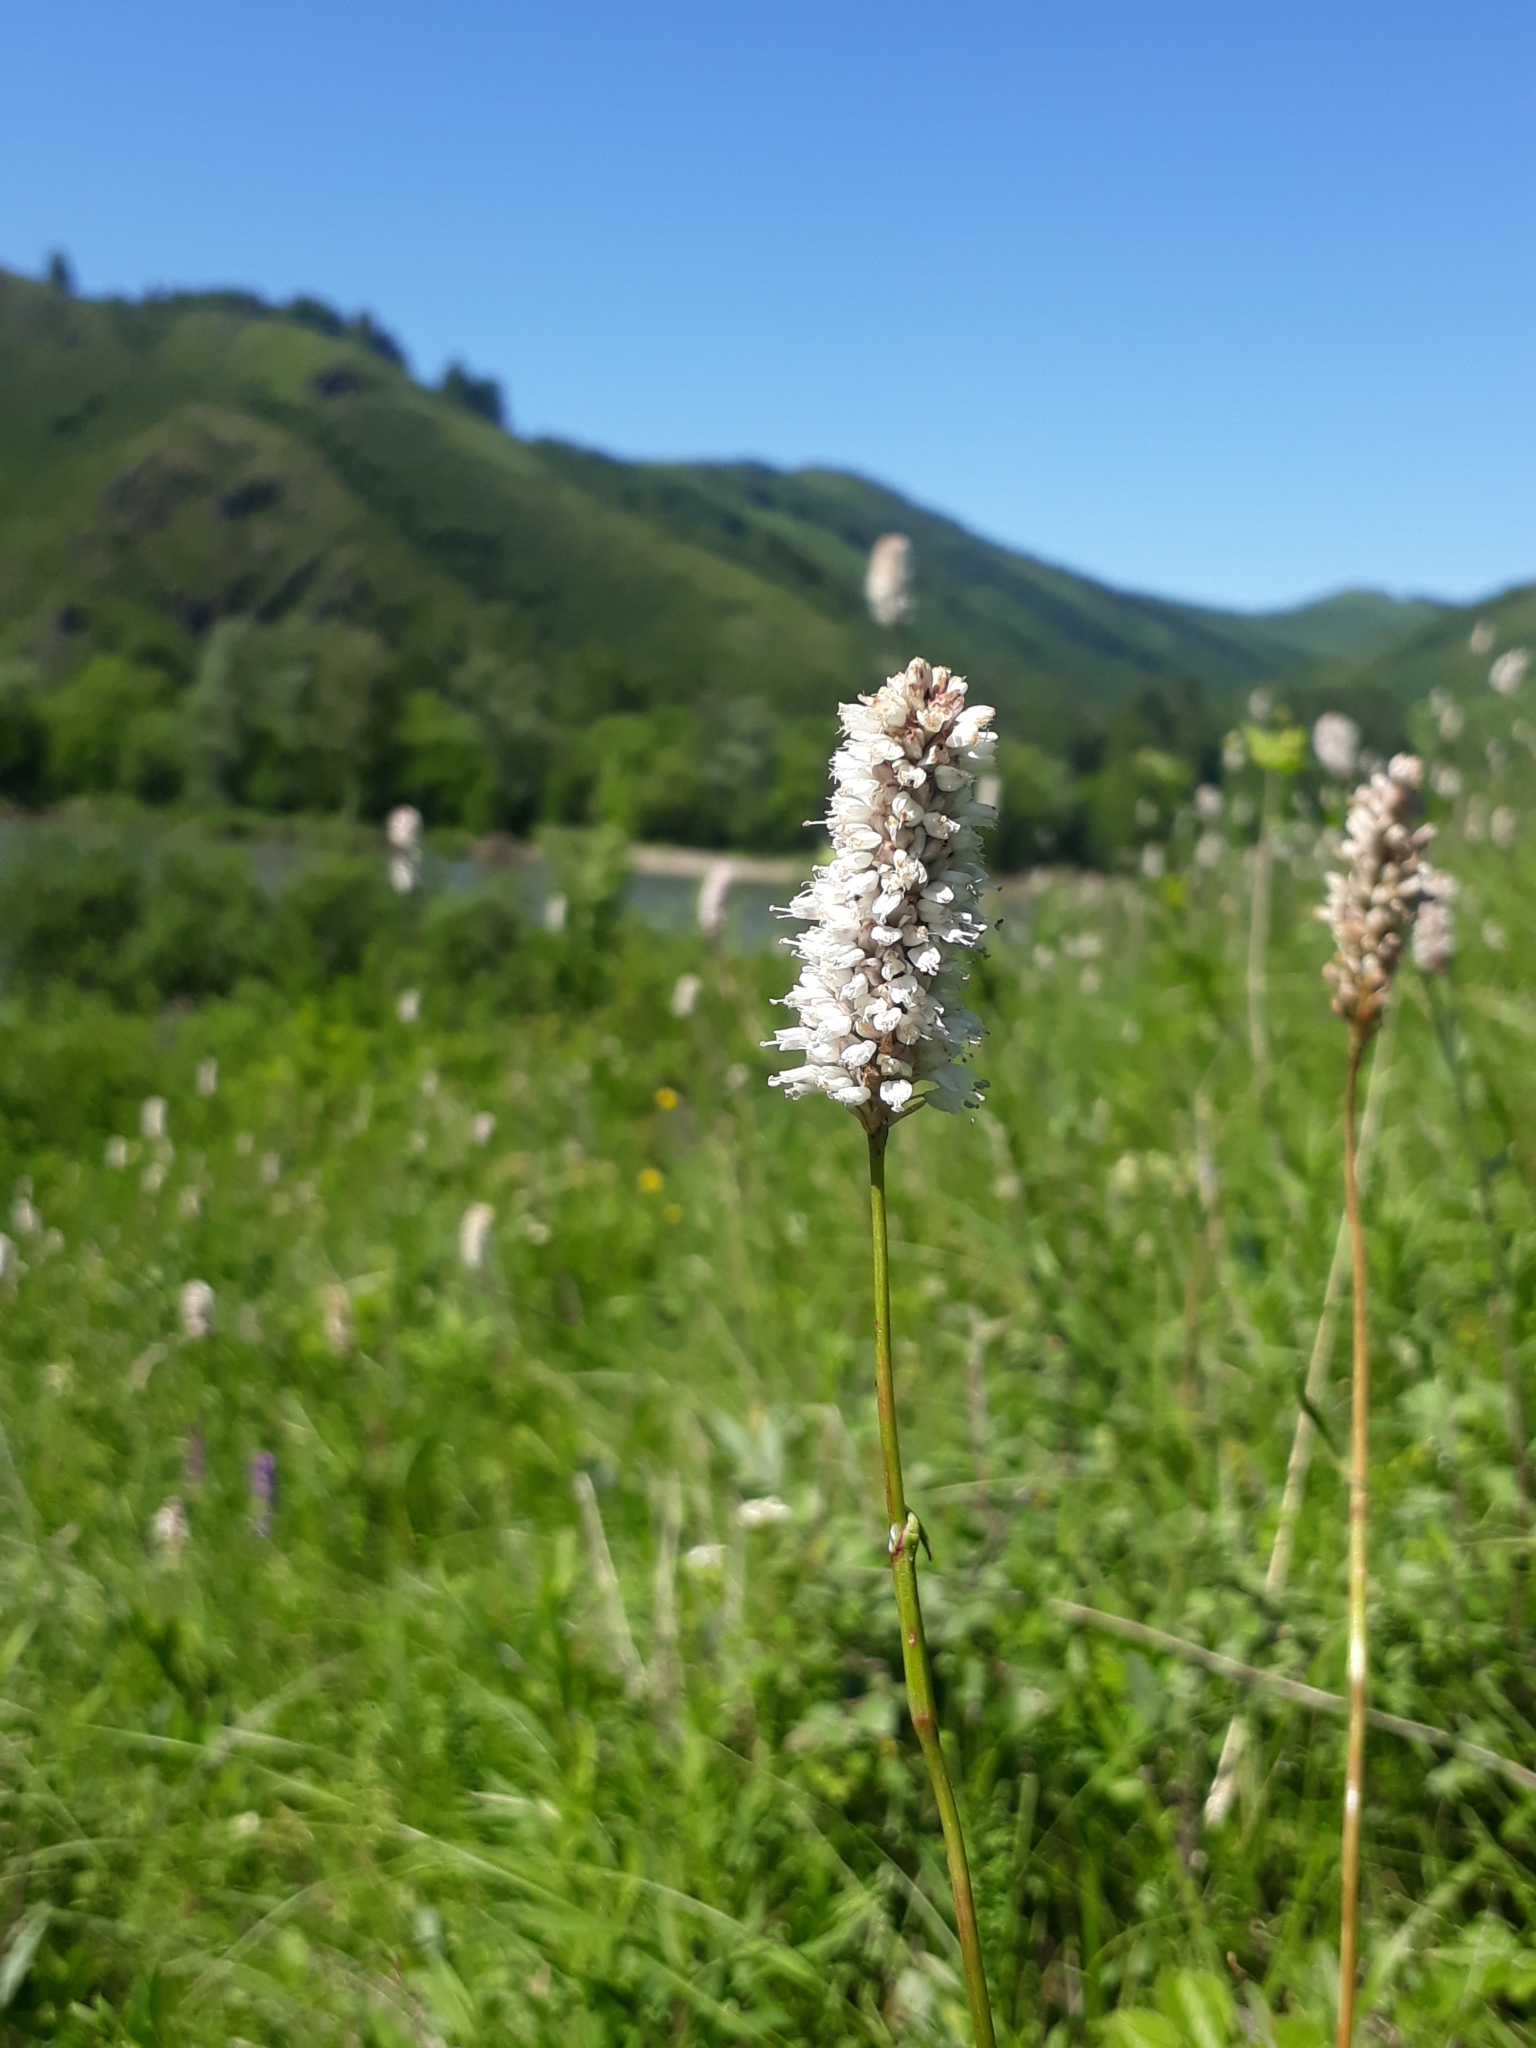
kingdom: Plantae
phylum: Tracheophyta
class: Magnoliopsida
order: Caryophyllales
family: Polygonaceae
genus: Bistorta
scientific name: Bistorta officinalis
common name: Common bistort
